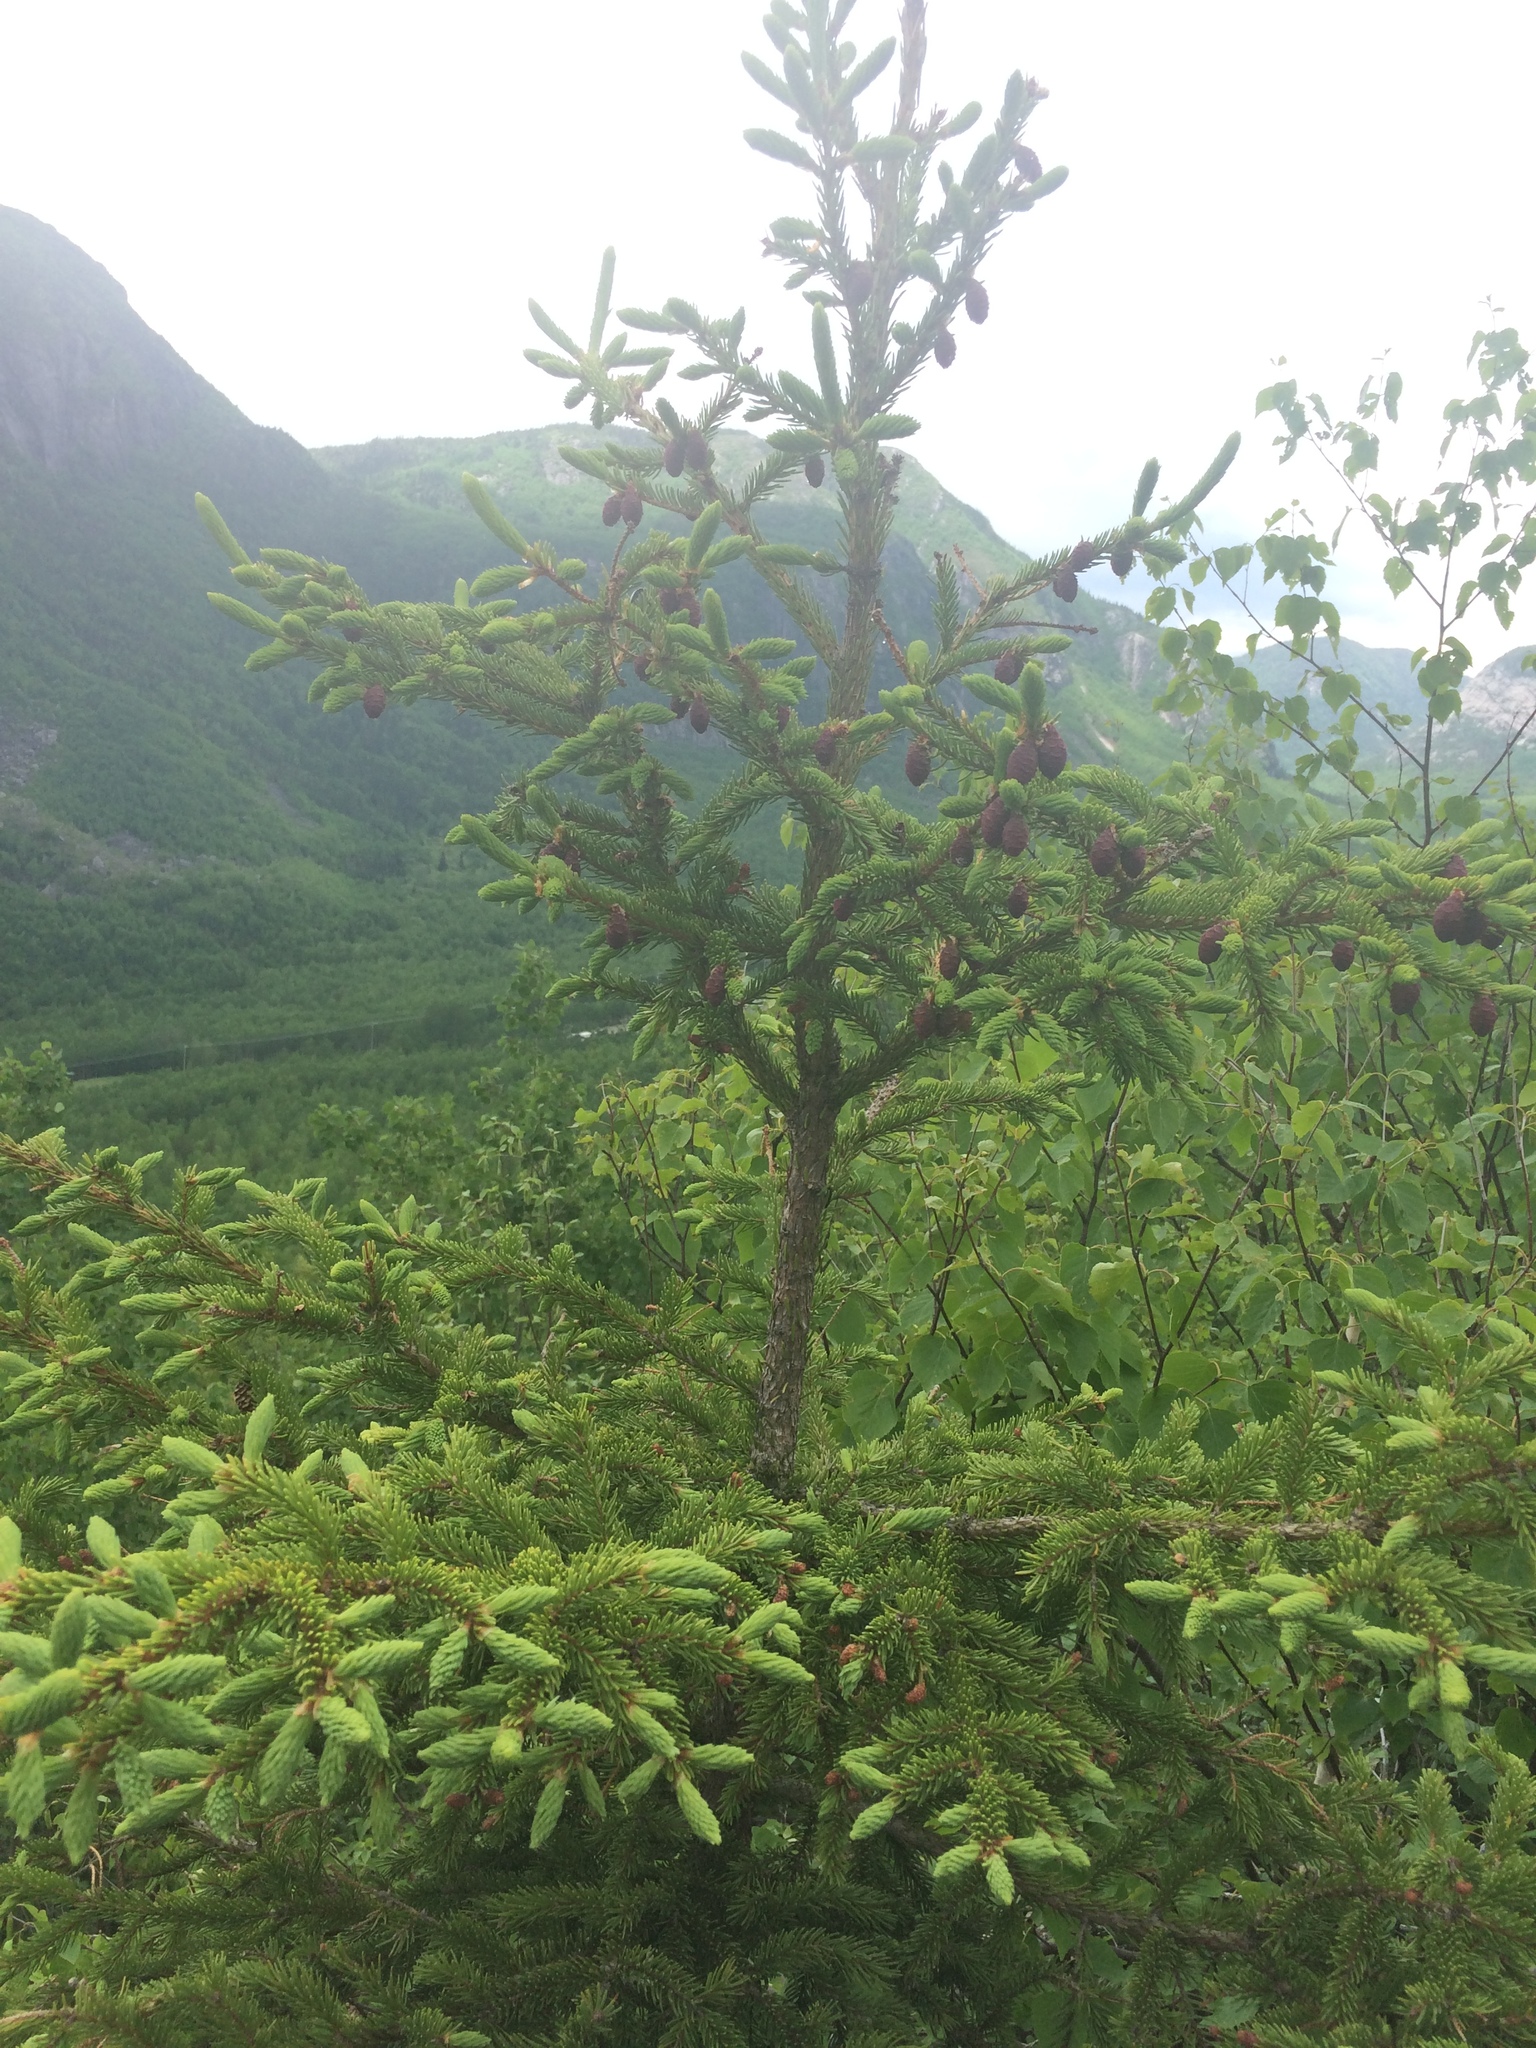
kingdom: Plantae
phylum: Tracheophyta
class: Pinopsida
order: Pinales
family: Pinaceae
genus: Picea
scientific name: Picea mariana
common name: Black spruce
